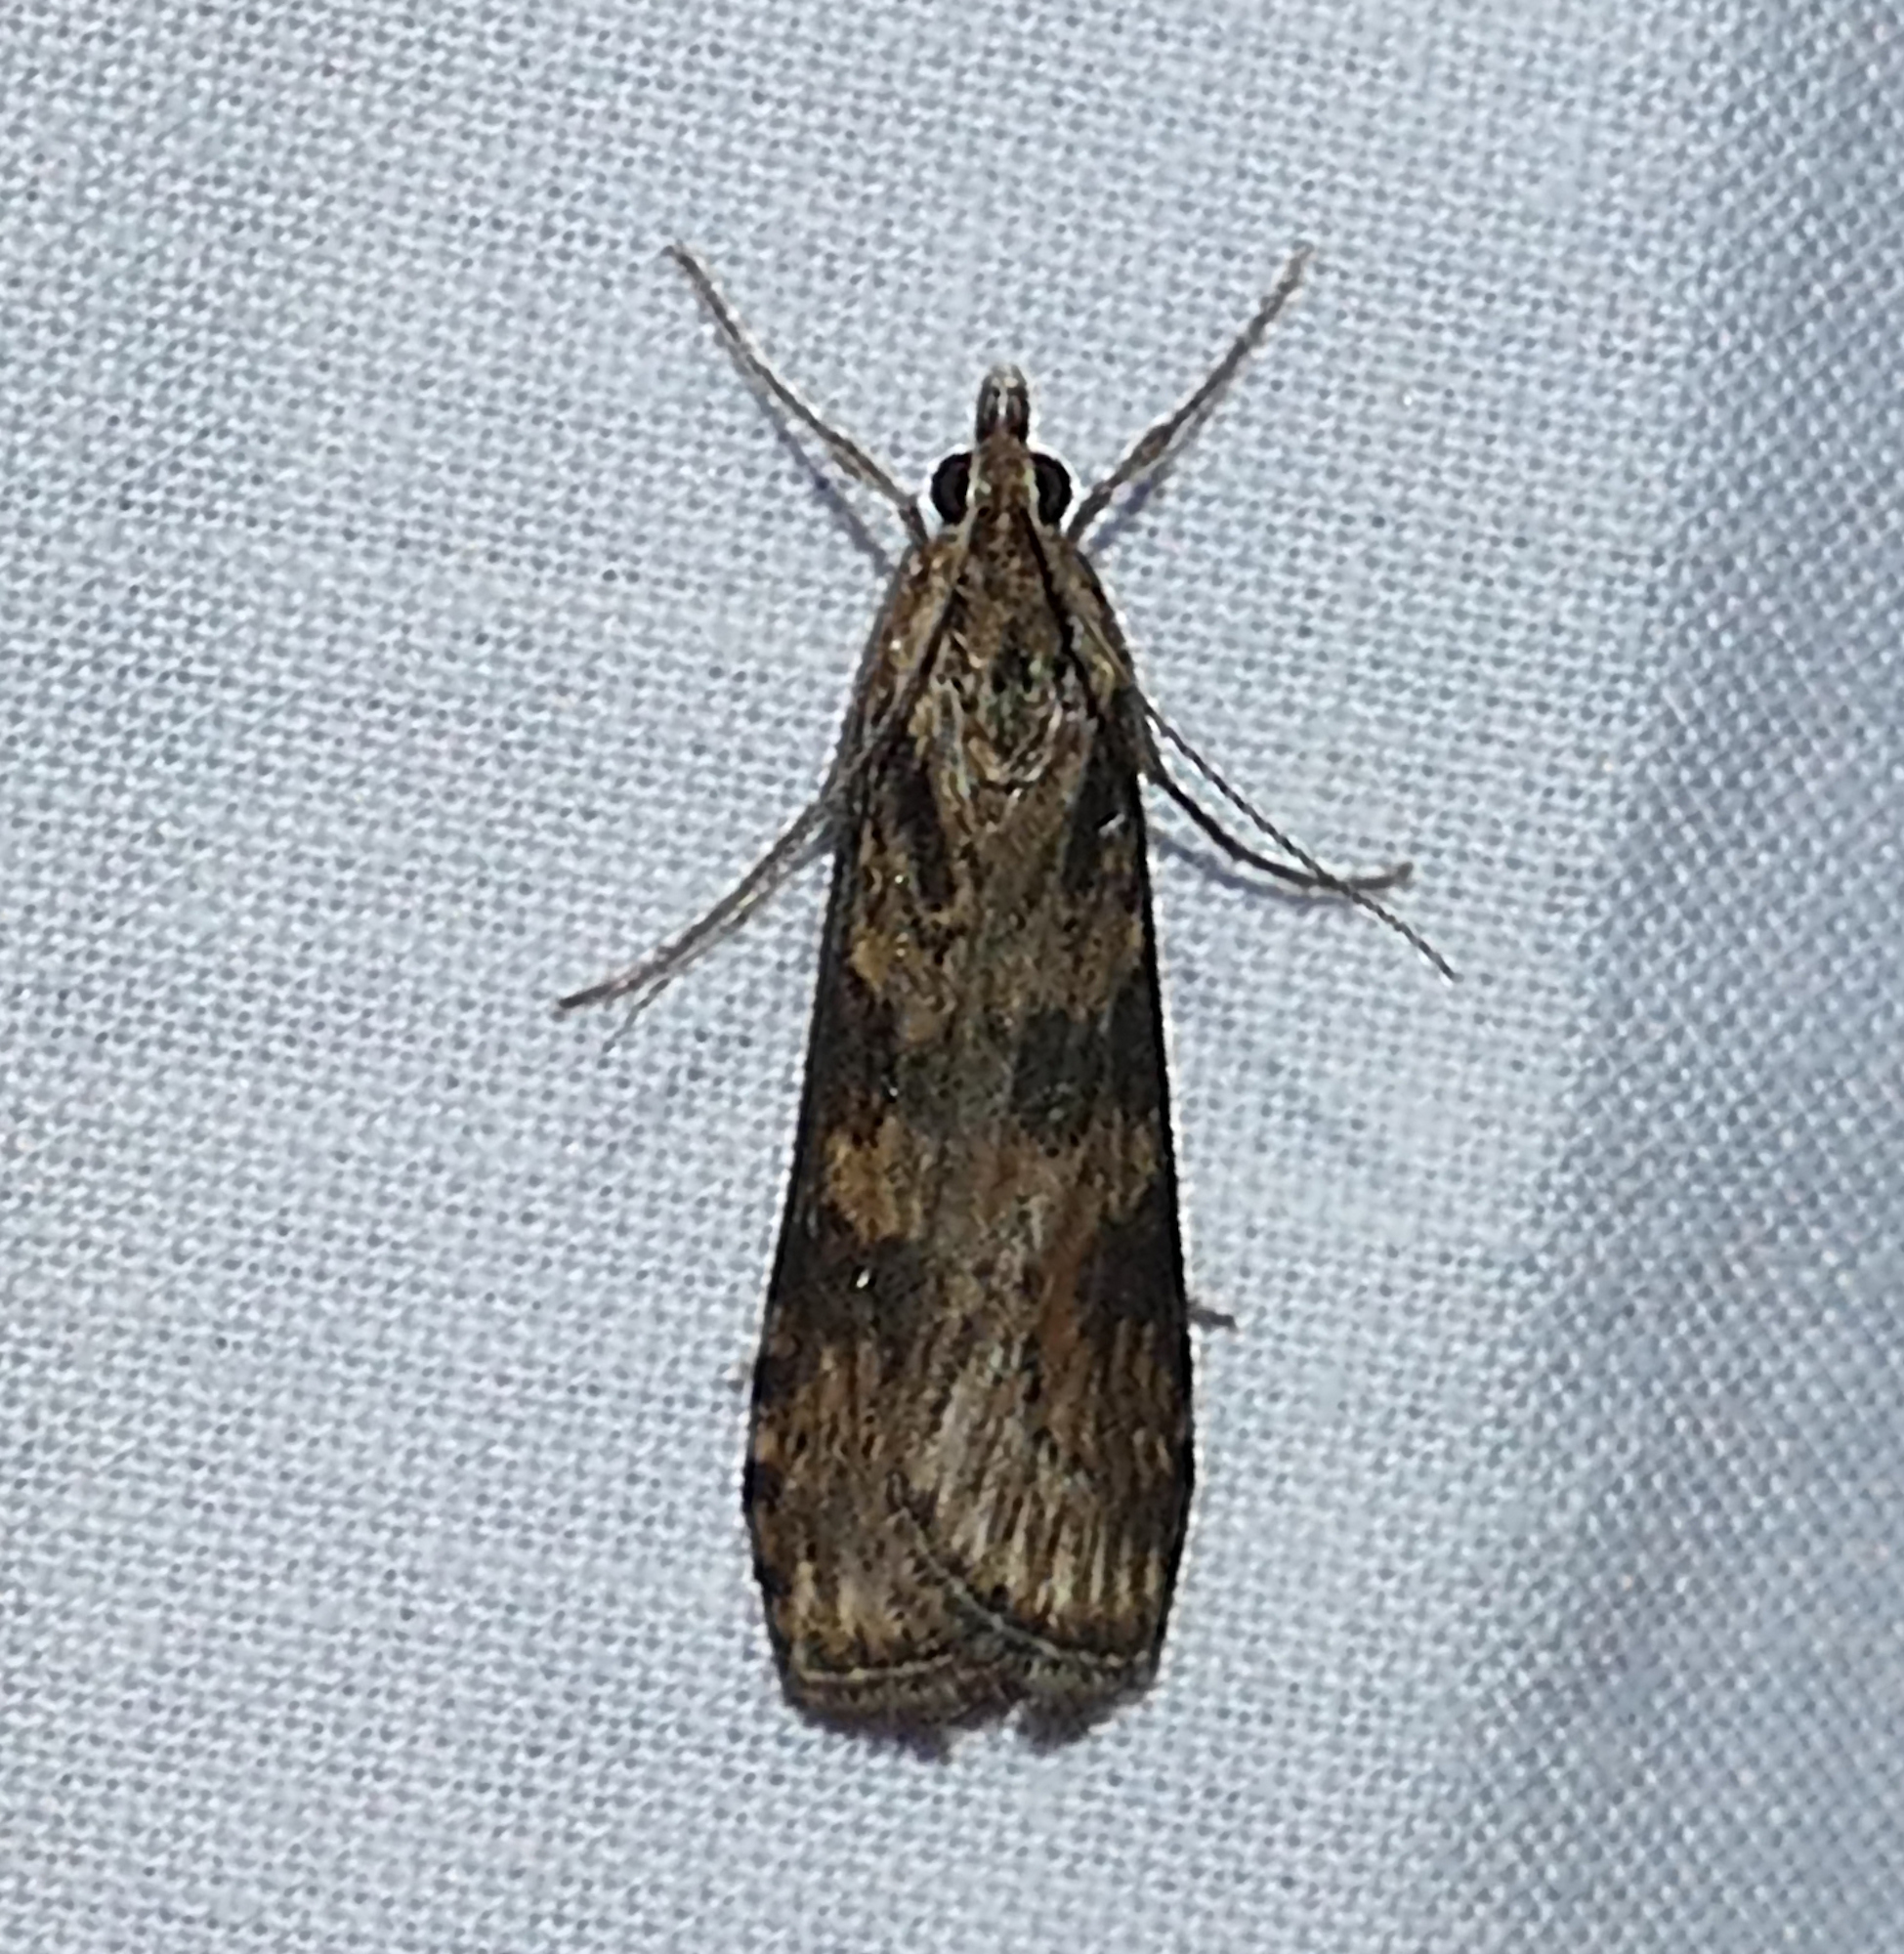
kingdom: Animalia
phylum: Arthropoda
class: Insecta
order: Lepidoptera
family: Crambidae
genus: Nomophila
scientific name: Nomophila nearctica
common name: American rush veneer
